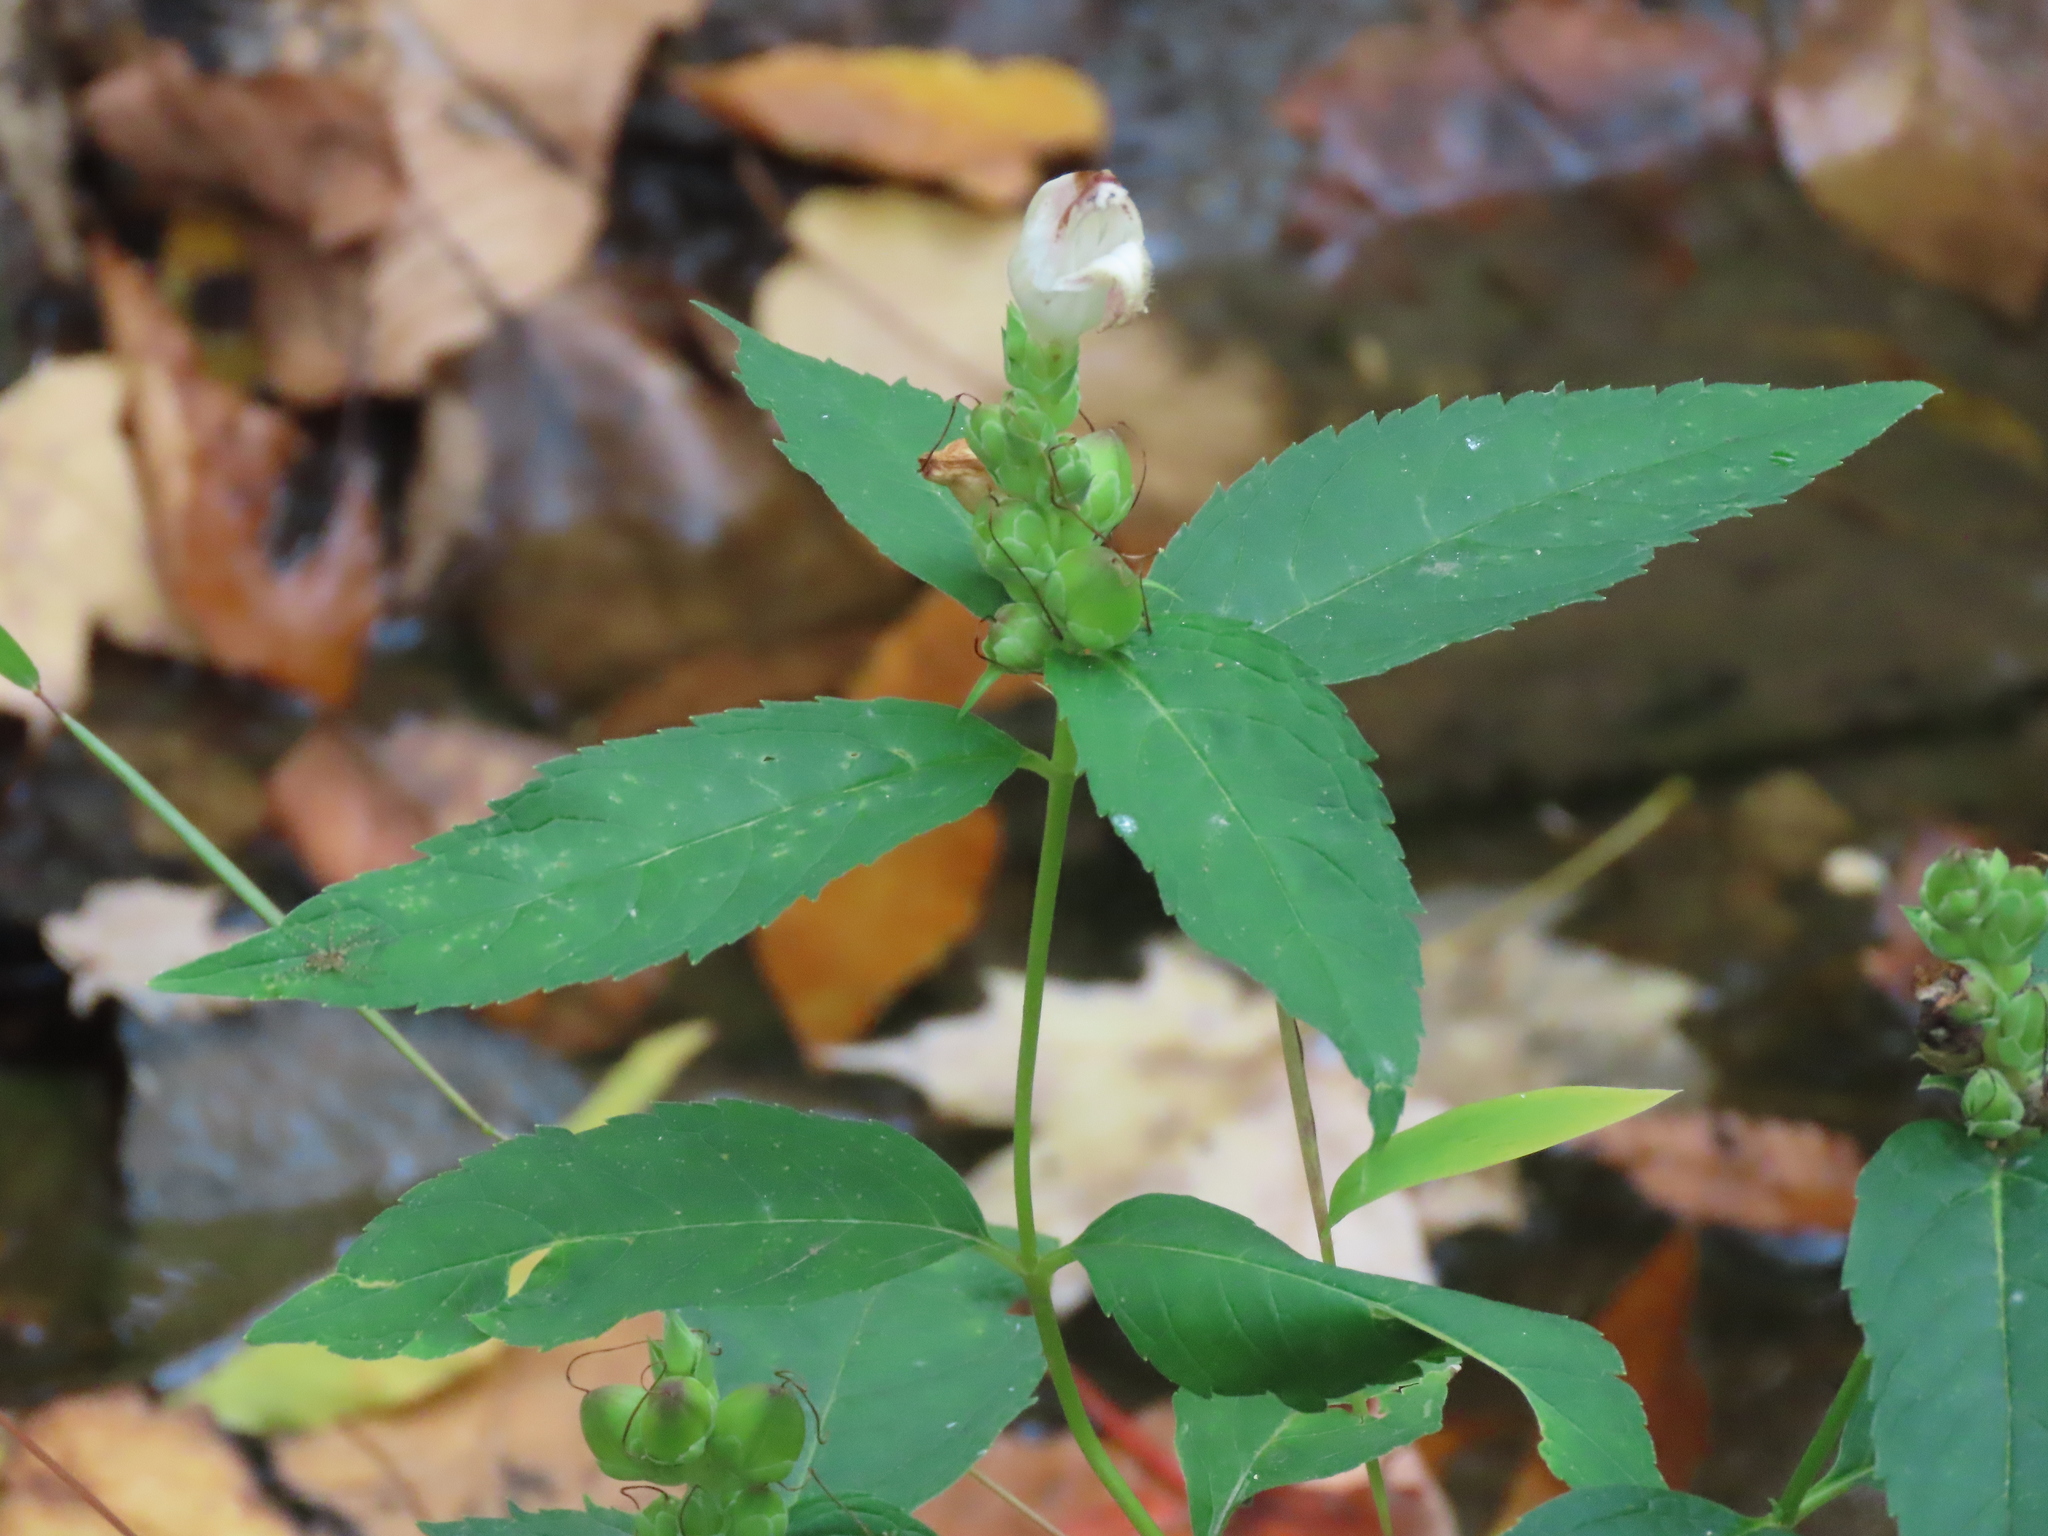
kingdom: Plantae
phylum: Tracheophyta
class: Magnoliopsida
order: Lamiales
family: Plantaginaceae
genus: Chelone
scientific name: Chelone glabra
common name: Snakehead
